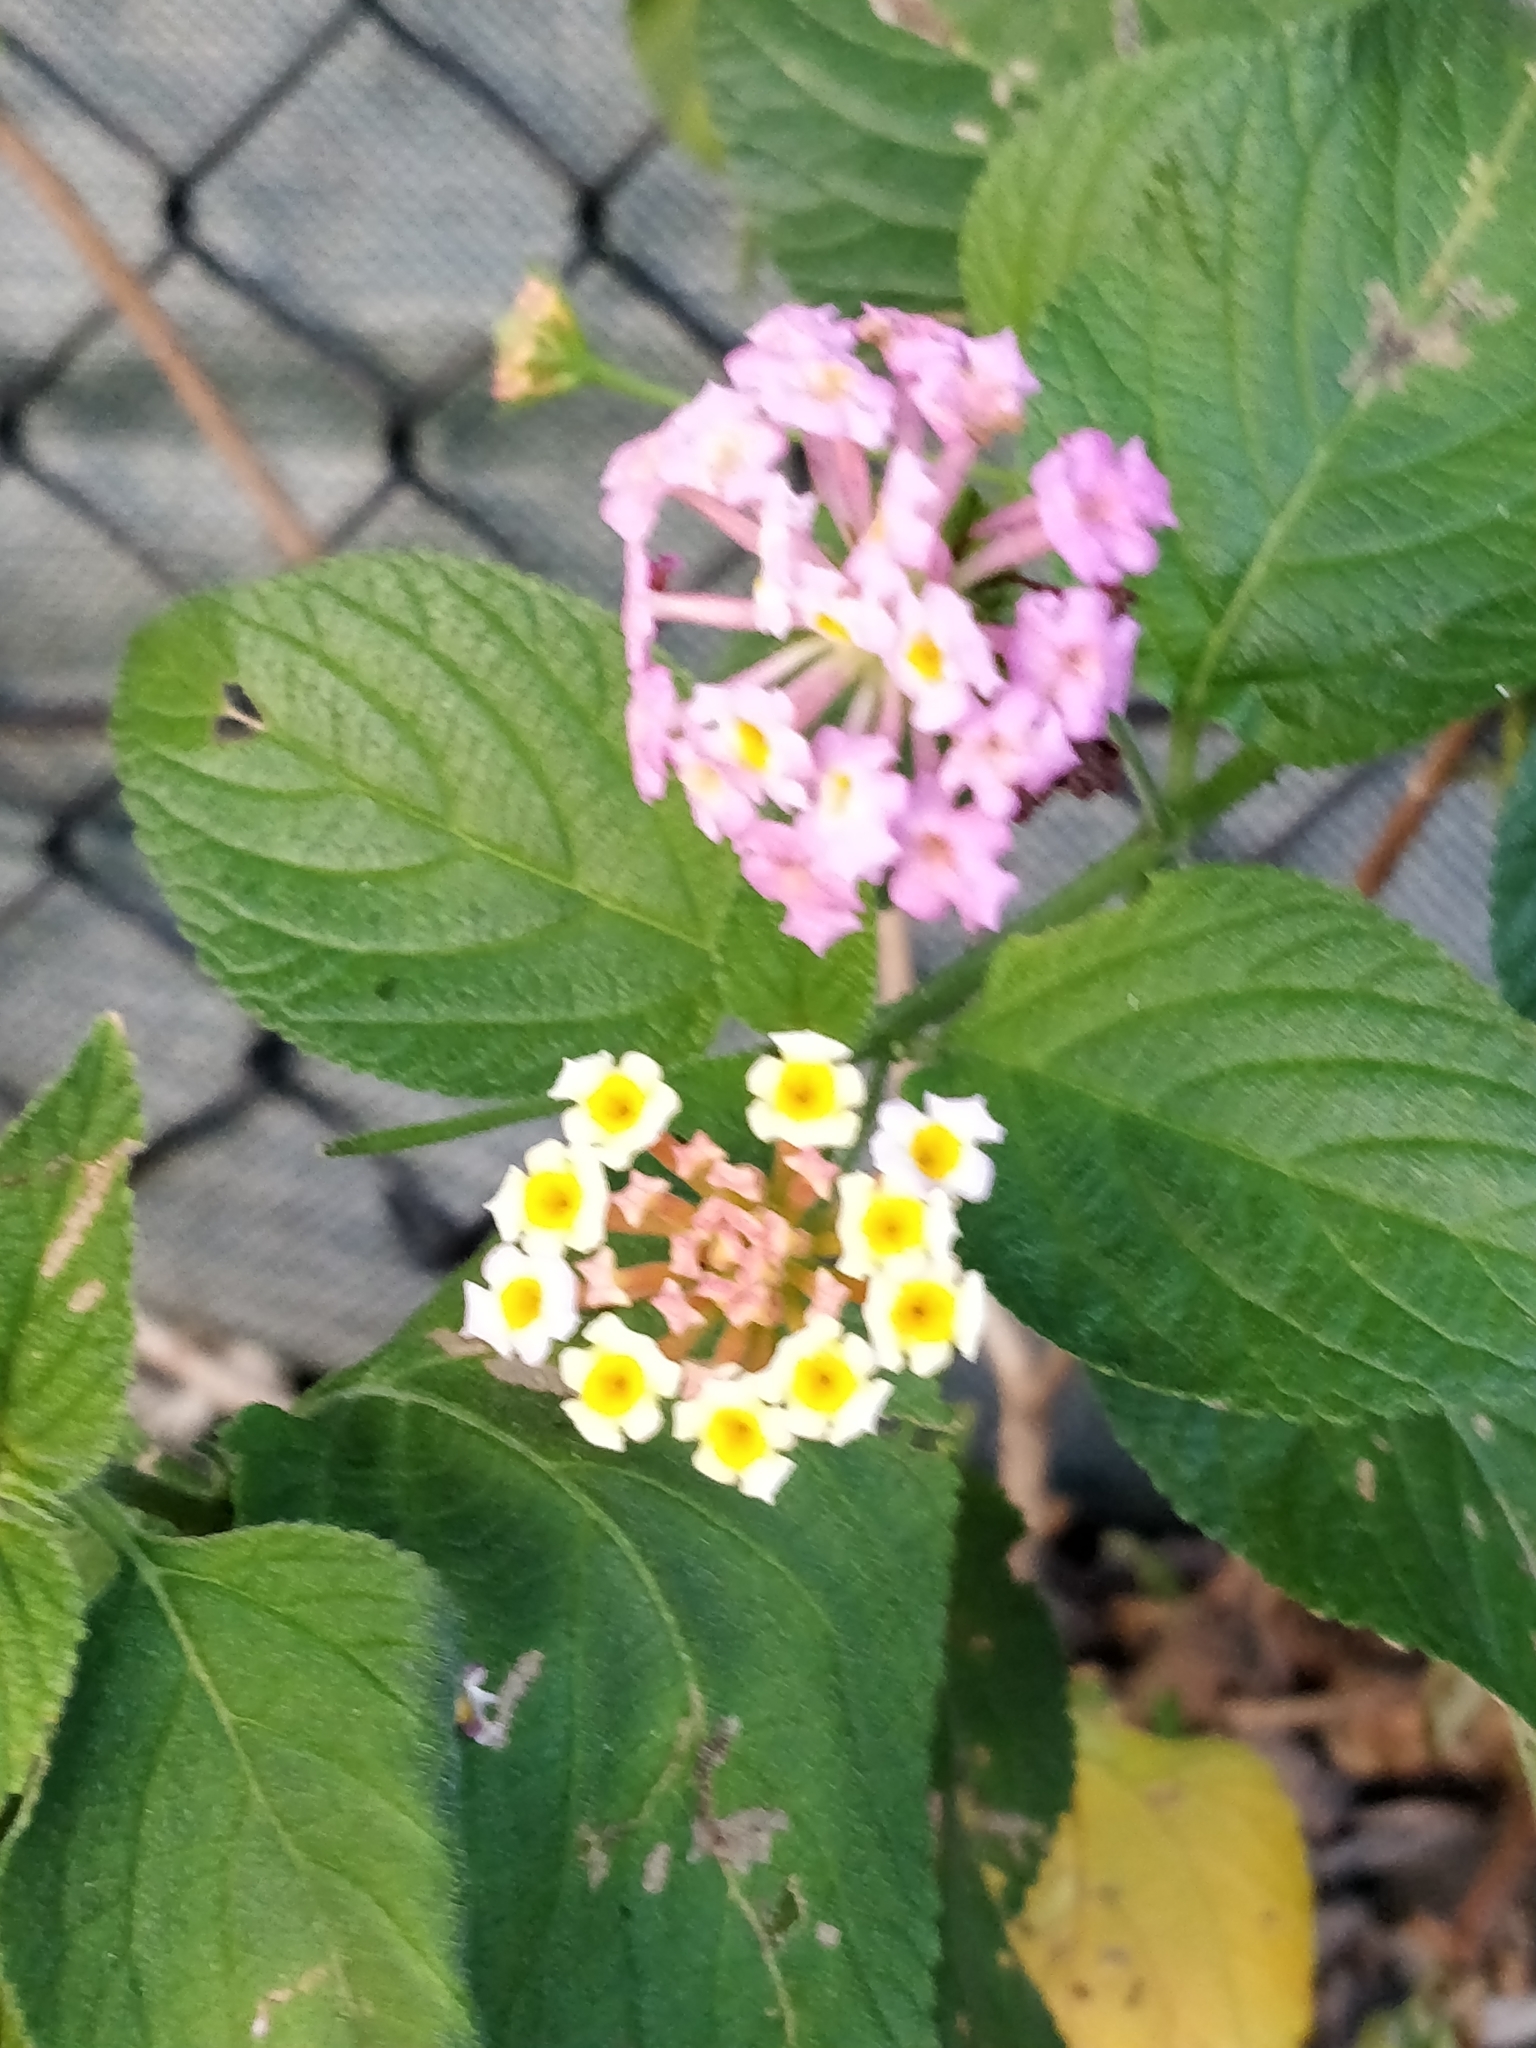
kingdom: Plantae
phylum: Tracheophyta
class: Magnoliopsida
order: Lamiales
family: Verbenaceae
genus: Lantana
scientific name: Lantana camara
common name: Lantana
